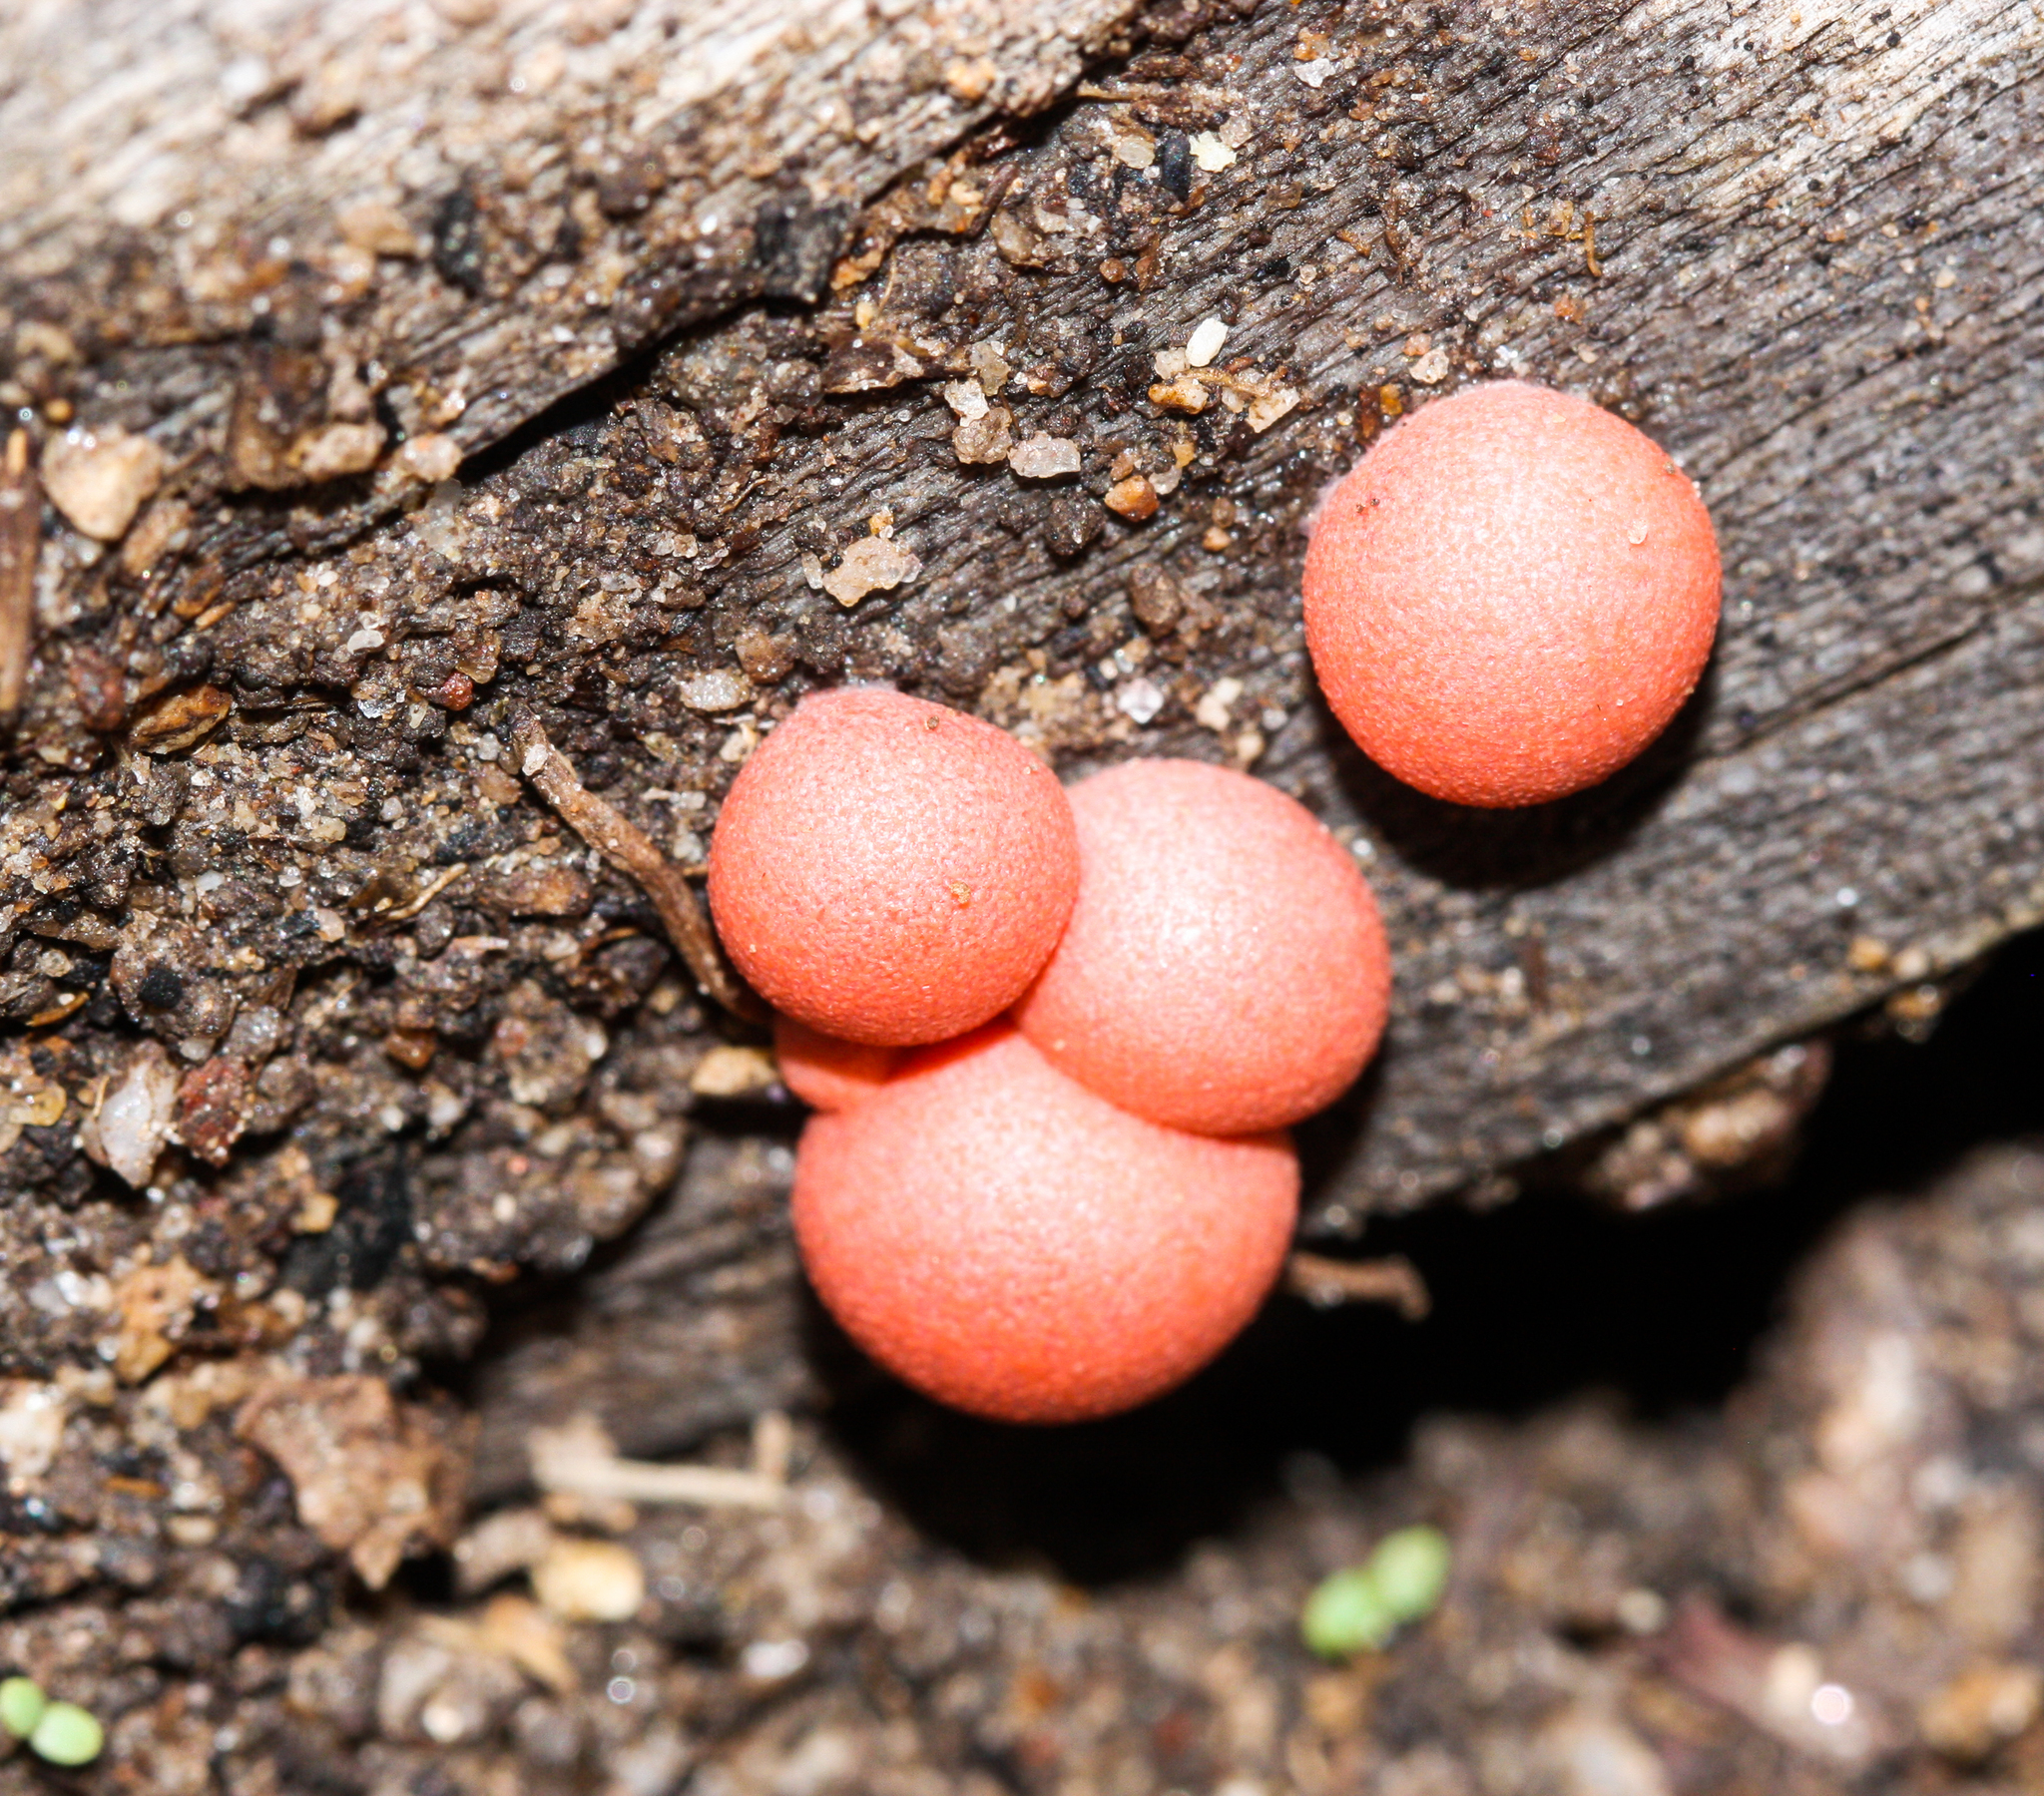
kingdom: Protozoa
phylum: Mycetozoa
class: Myxomycetes
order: Cribrariales
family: Tubiferaceae
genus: Lycogala
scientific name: Lycogala epidendrum
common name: Wolf's milk
